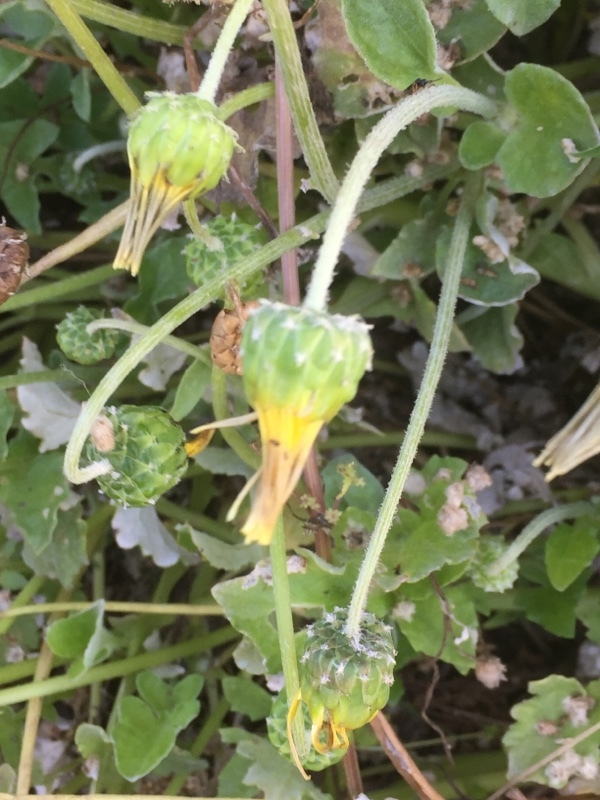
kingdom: Plantae
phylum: Tracheophyta
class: Magnoliopsida
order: Asterales
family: Asteraceae
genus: Arctotheca
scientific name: Arctotheca calendula
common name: Capeweed
